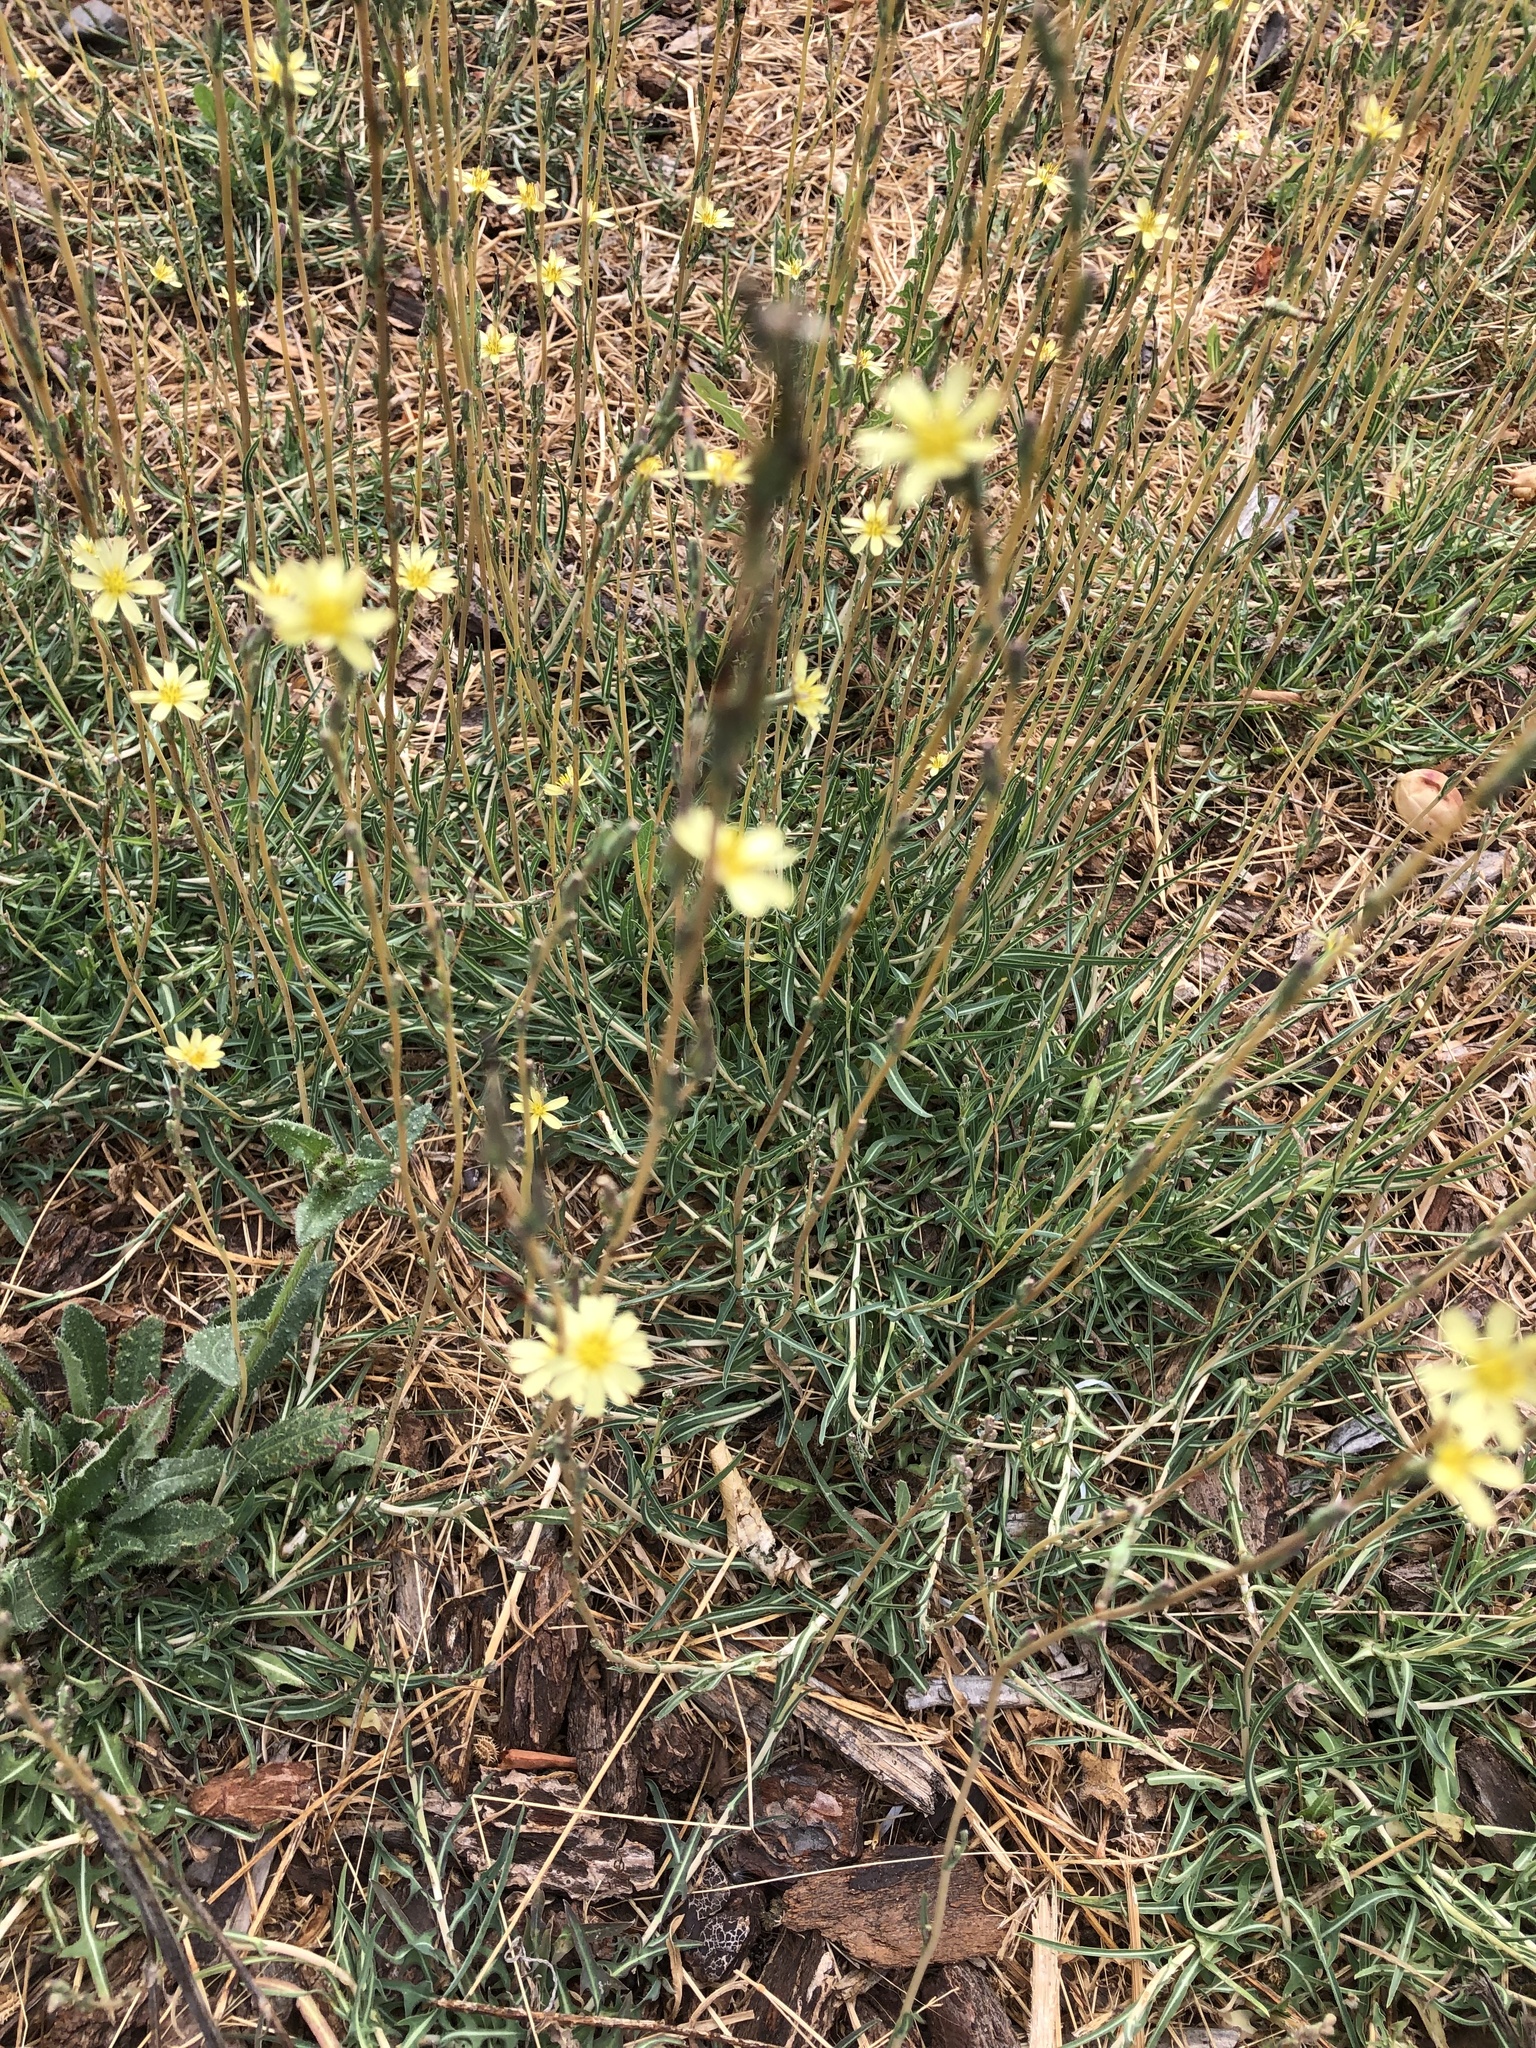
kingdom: Plantae
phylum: Tracheophyta
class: Magnoliopsida
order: Asterales
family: Asteraceae
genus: Lactuca
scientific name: Lactuca saligna
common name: Wild lettuce
